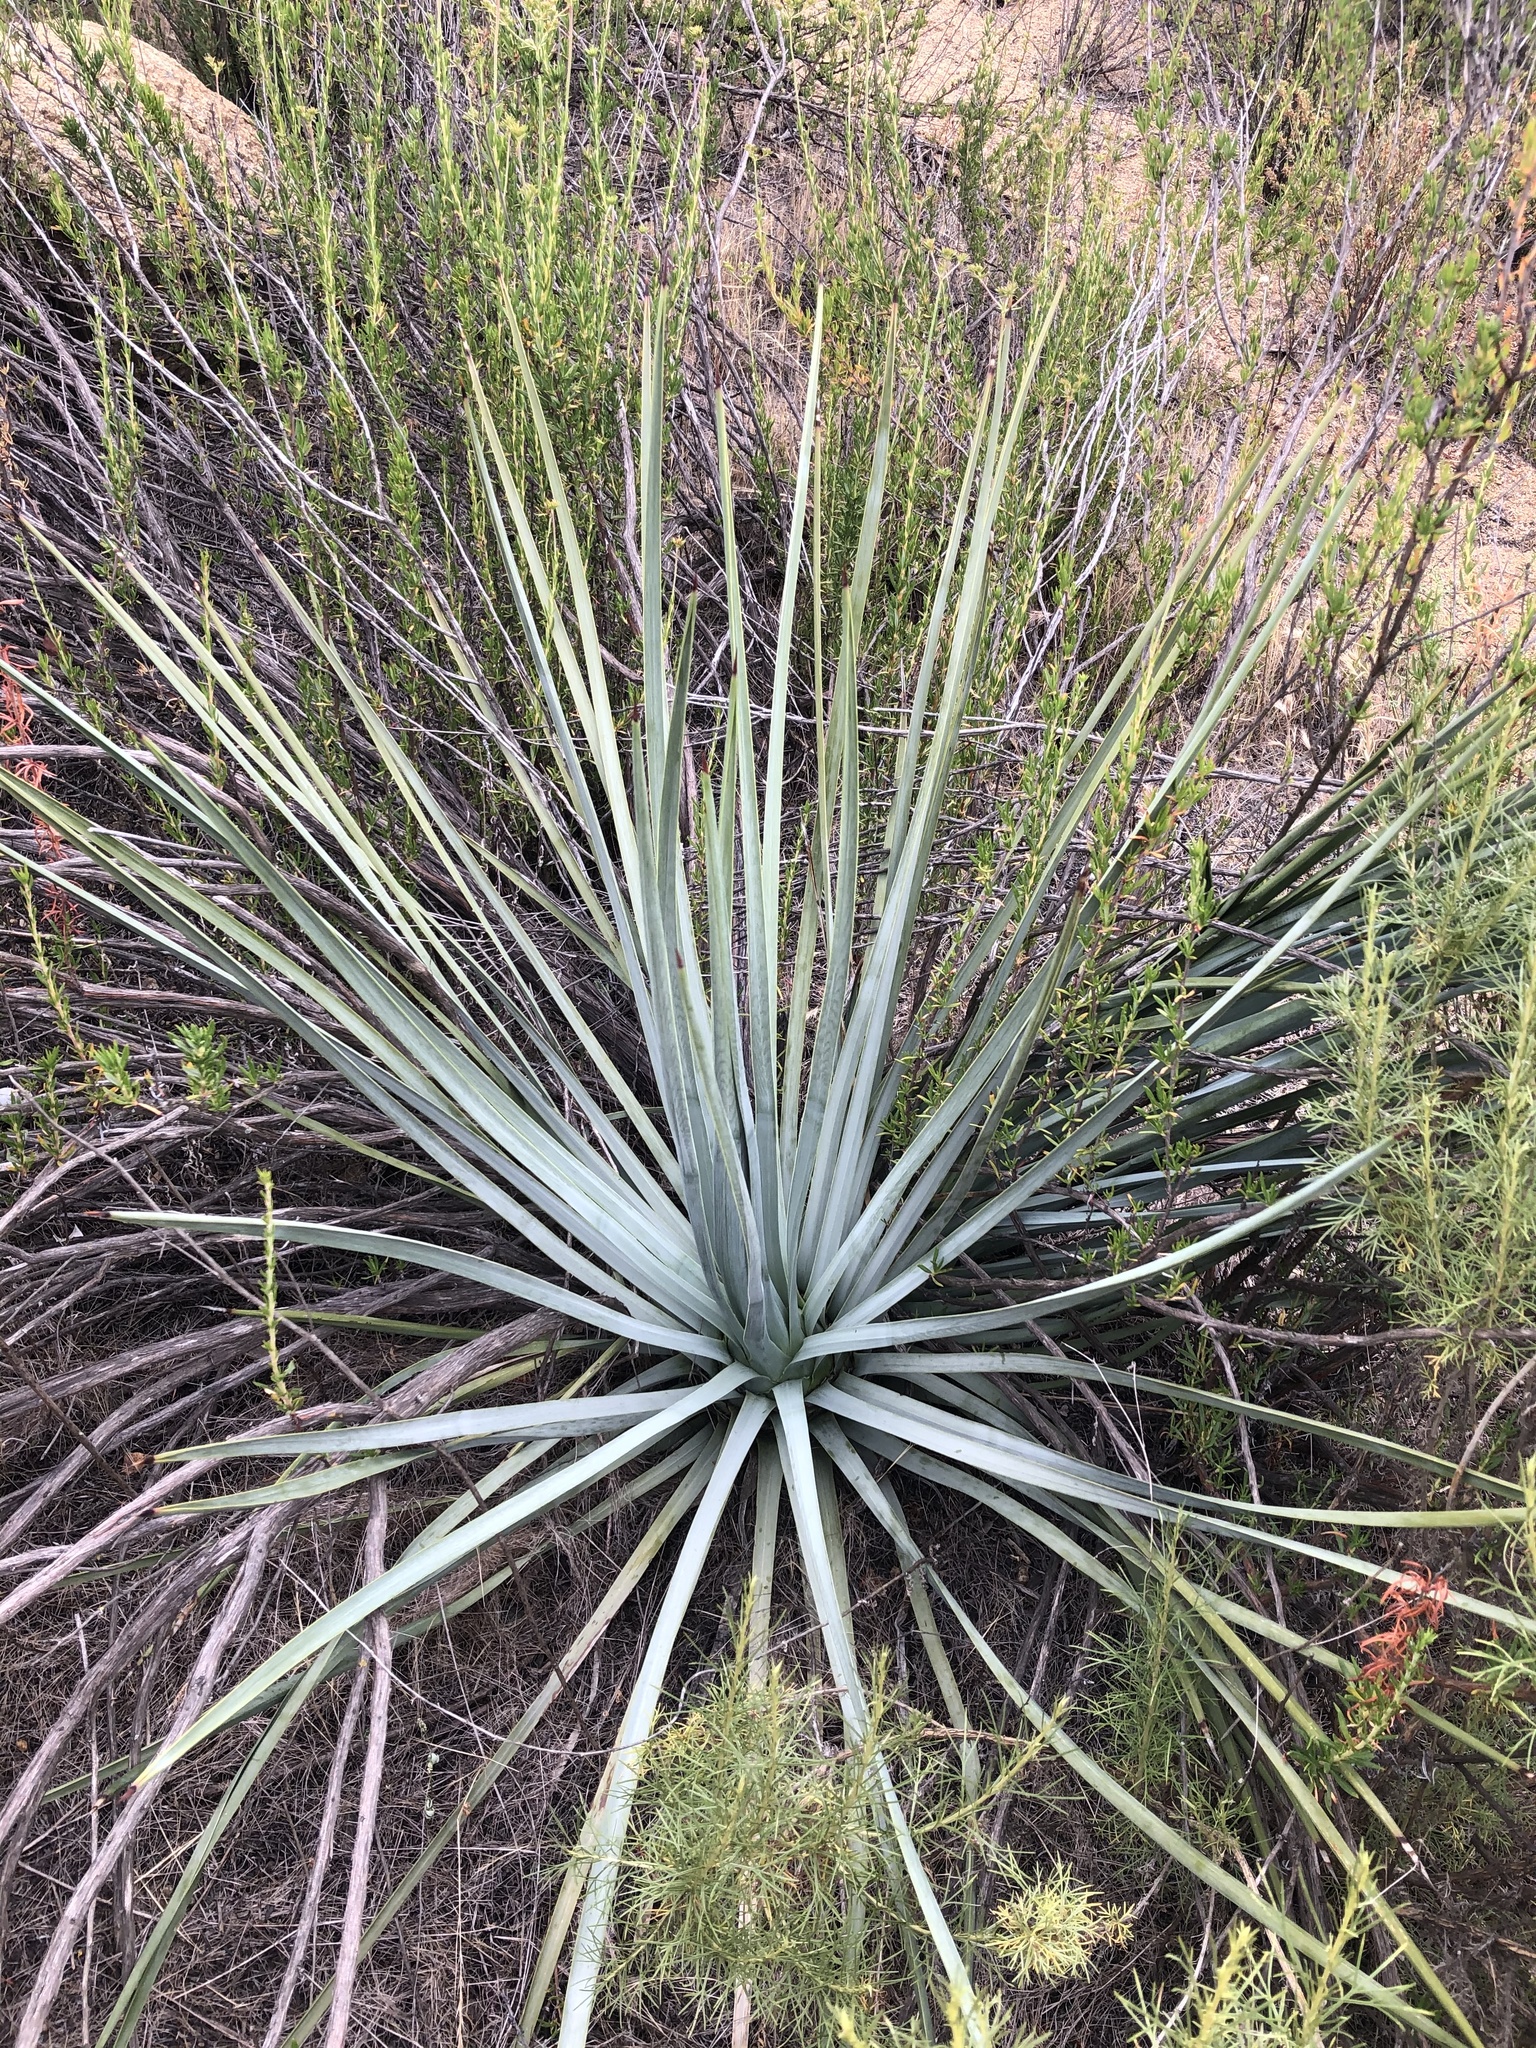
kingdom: Plantae
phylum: Tracheophyta
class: Liliopsida
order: Asparagales
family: Asparagaceae
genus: Hesperoyucca
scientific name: Hesperoyucca whipplei
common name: Our lord's-candle
